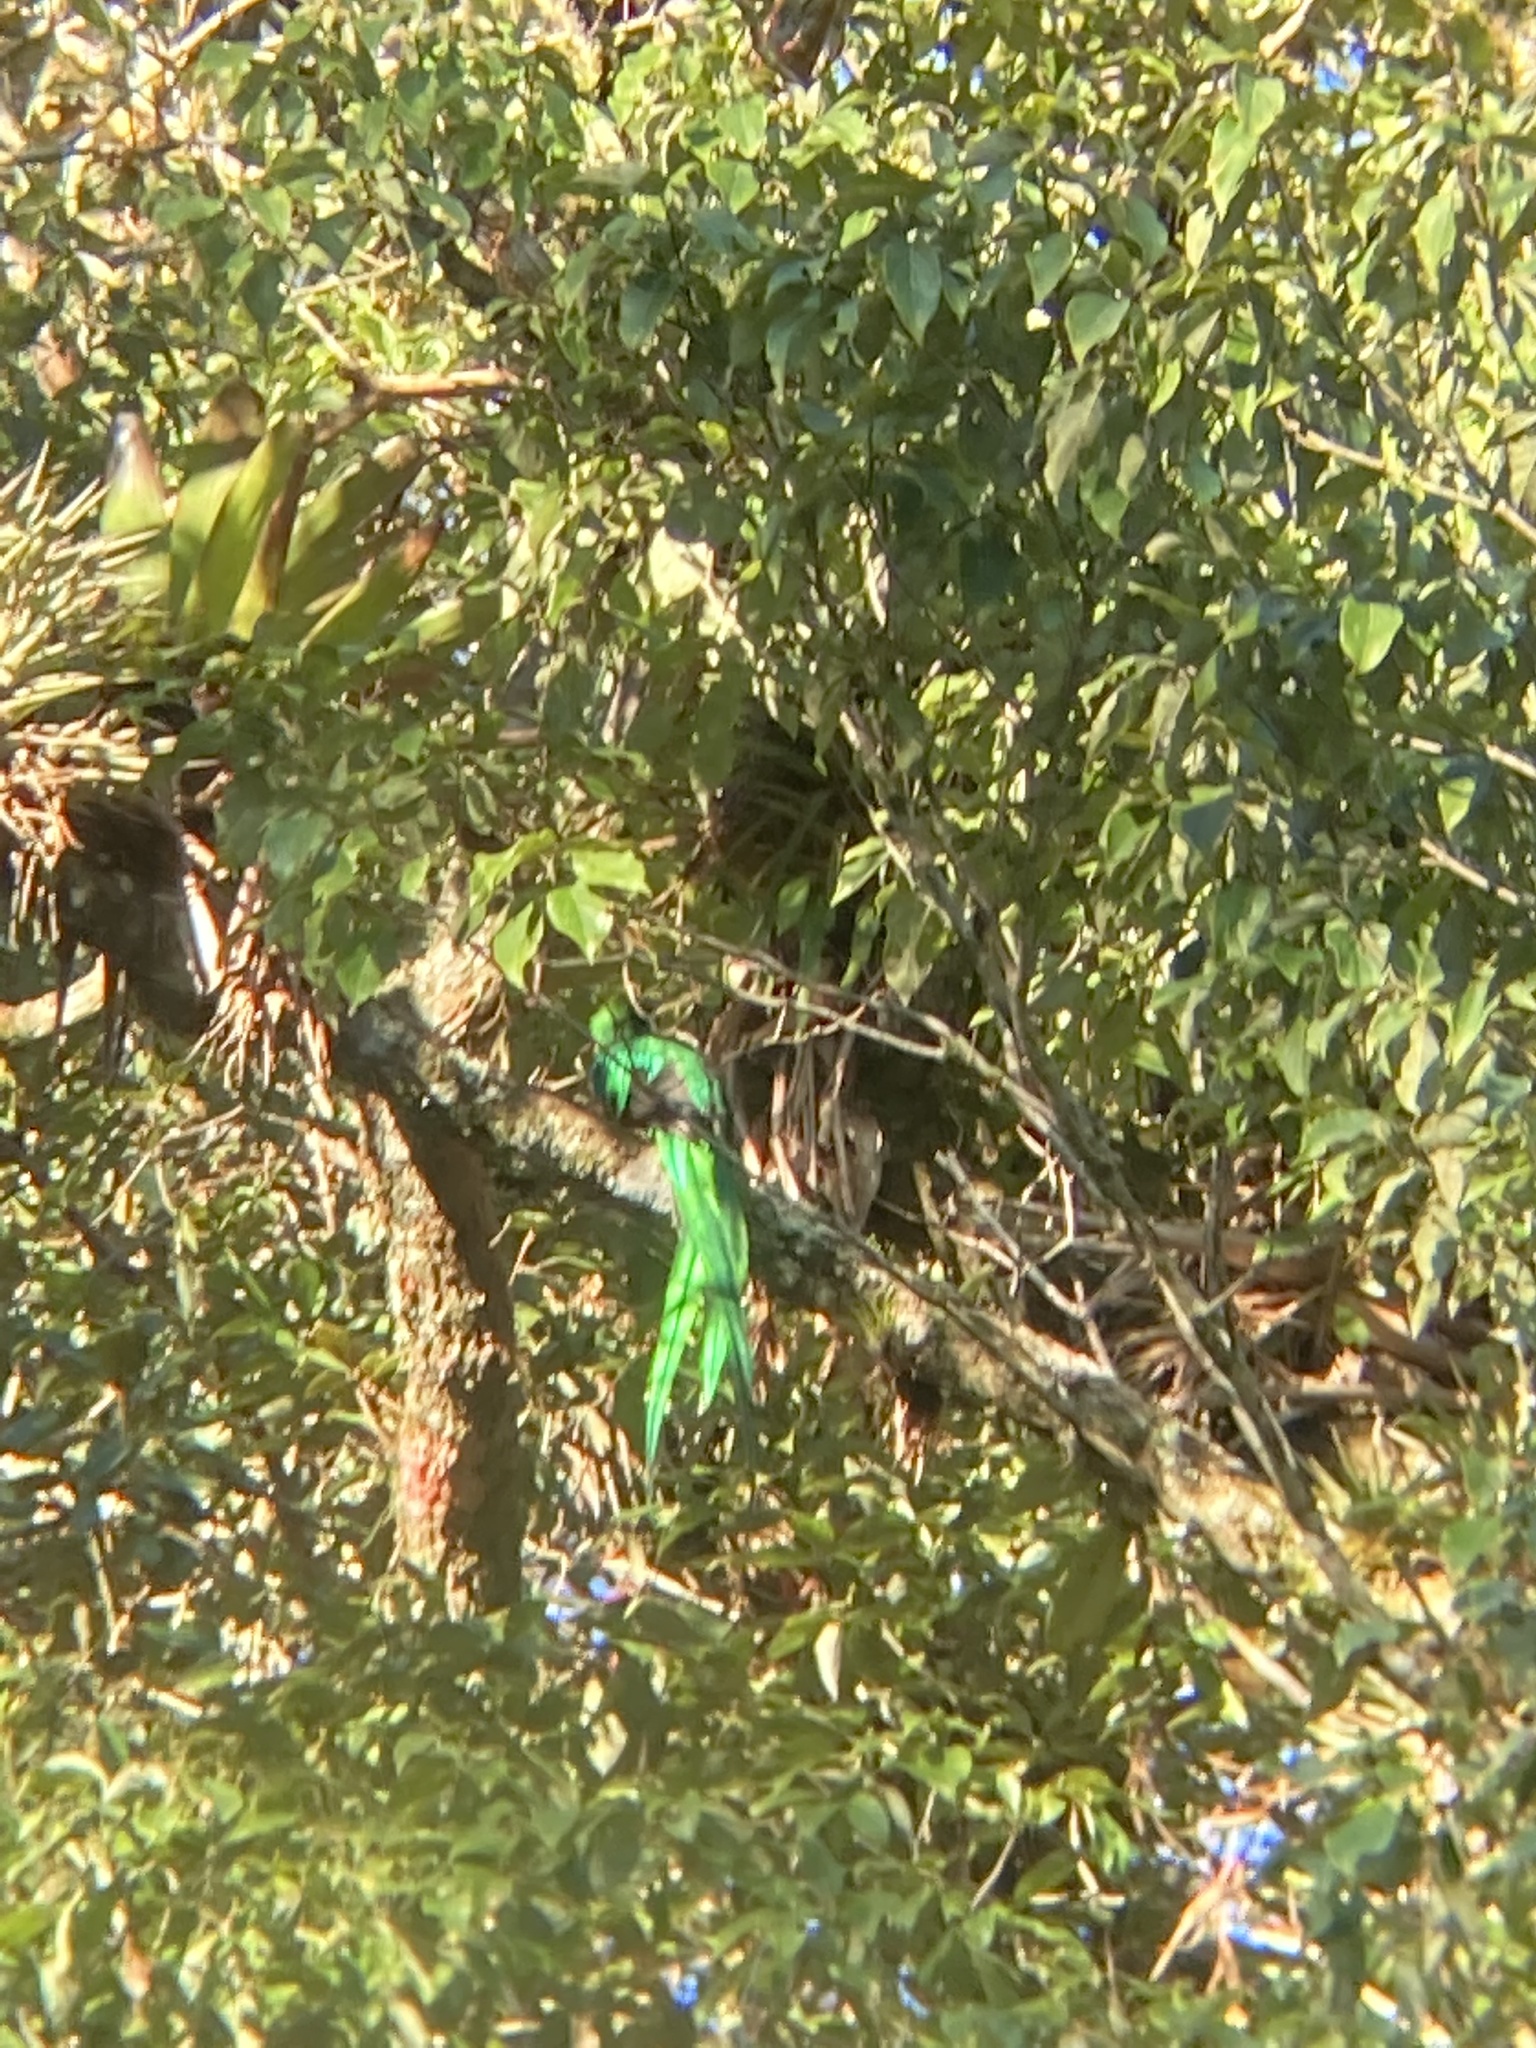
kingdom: Animalia
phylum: Chordata
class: Aves
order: Trogoniformes
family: Trogonidae
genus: Pharomachrus
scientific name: Pharomachrus mocinno
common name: Resplendent quetzal
